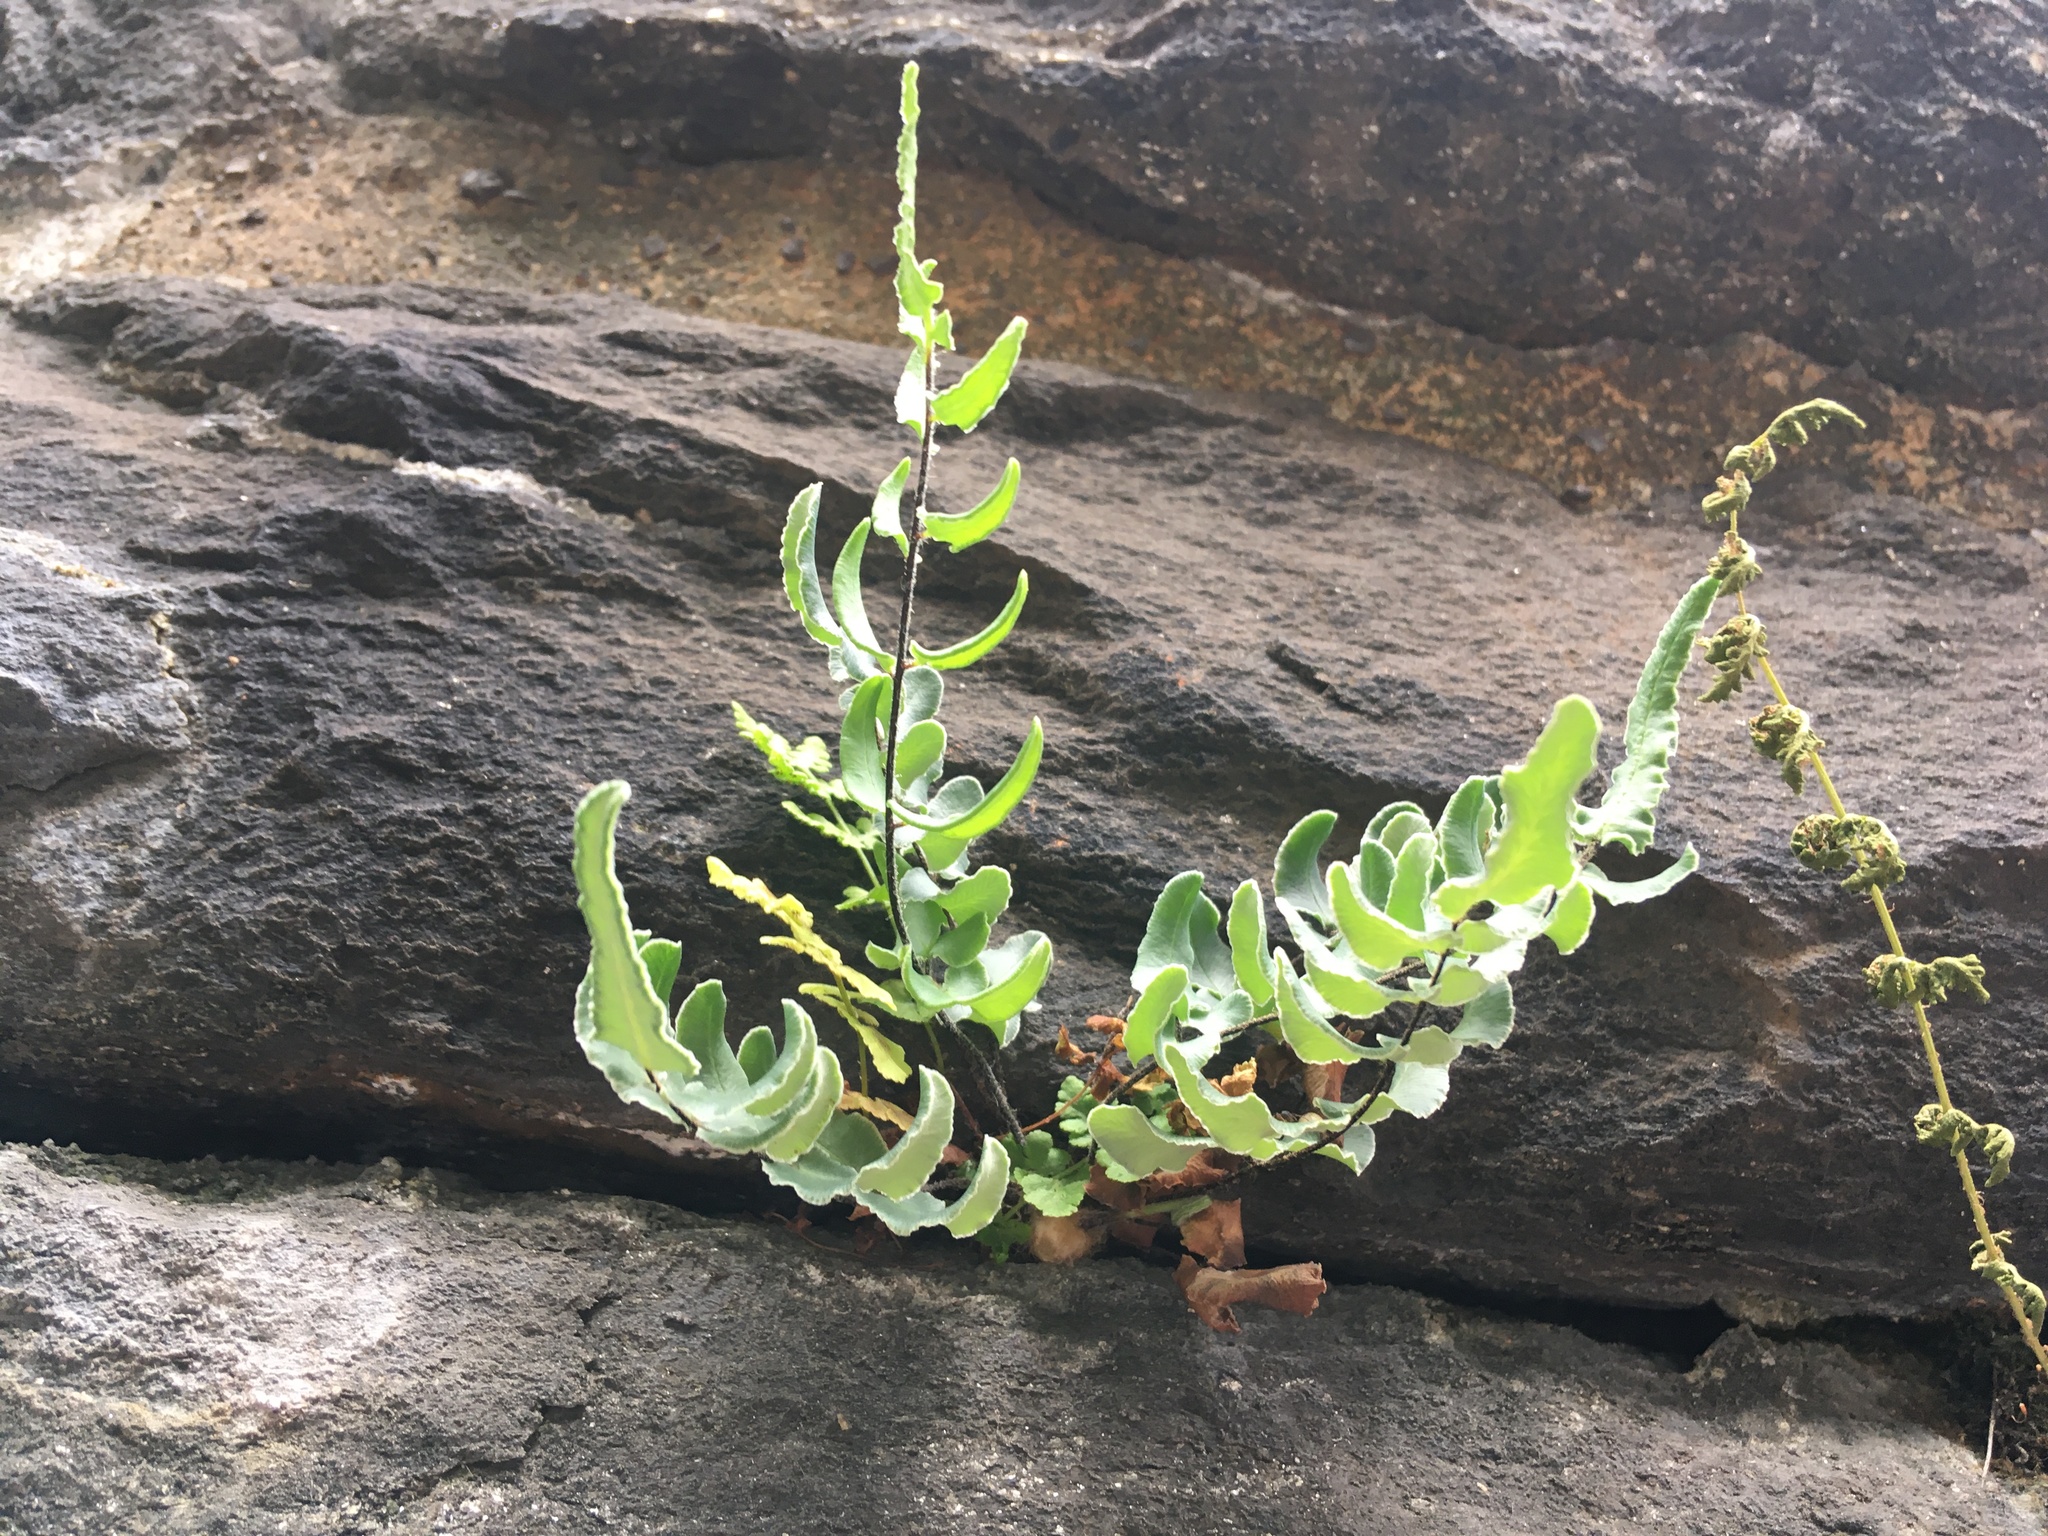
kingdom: Plantae
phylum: Tracheophyta
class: Polypodiopsida
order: Polypodiales
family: Pteridaceae
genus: Pellaea
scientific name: Pellaea atropurpurea
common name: Hairy cliffbrake
